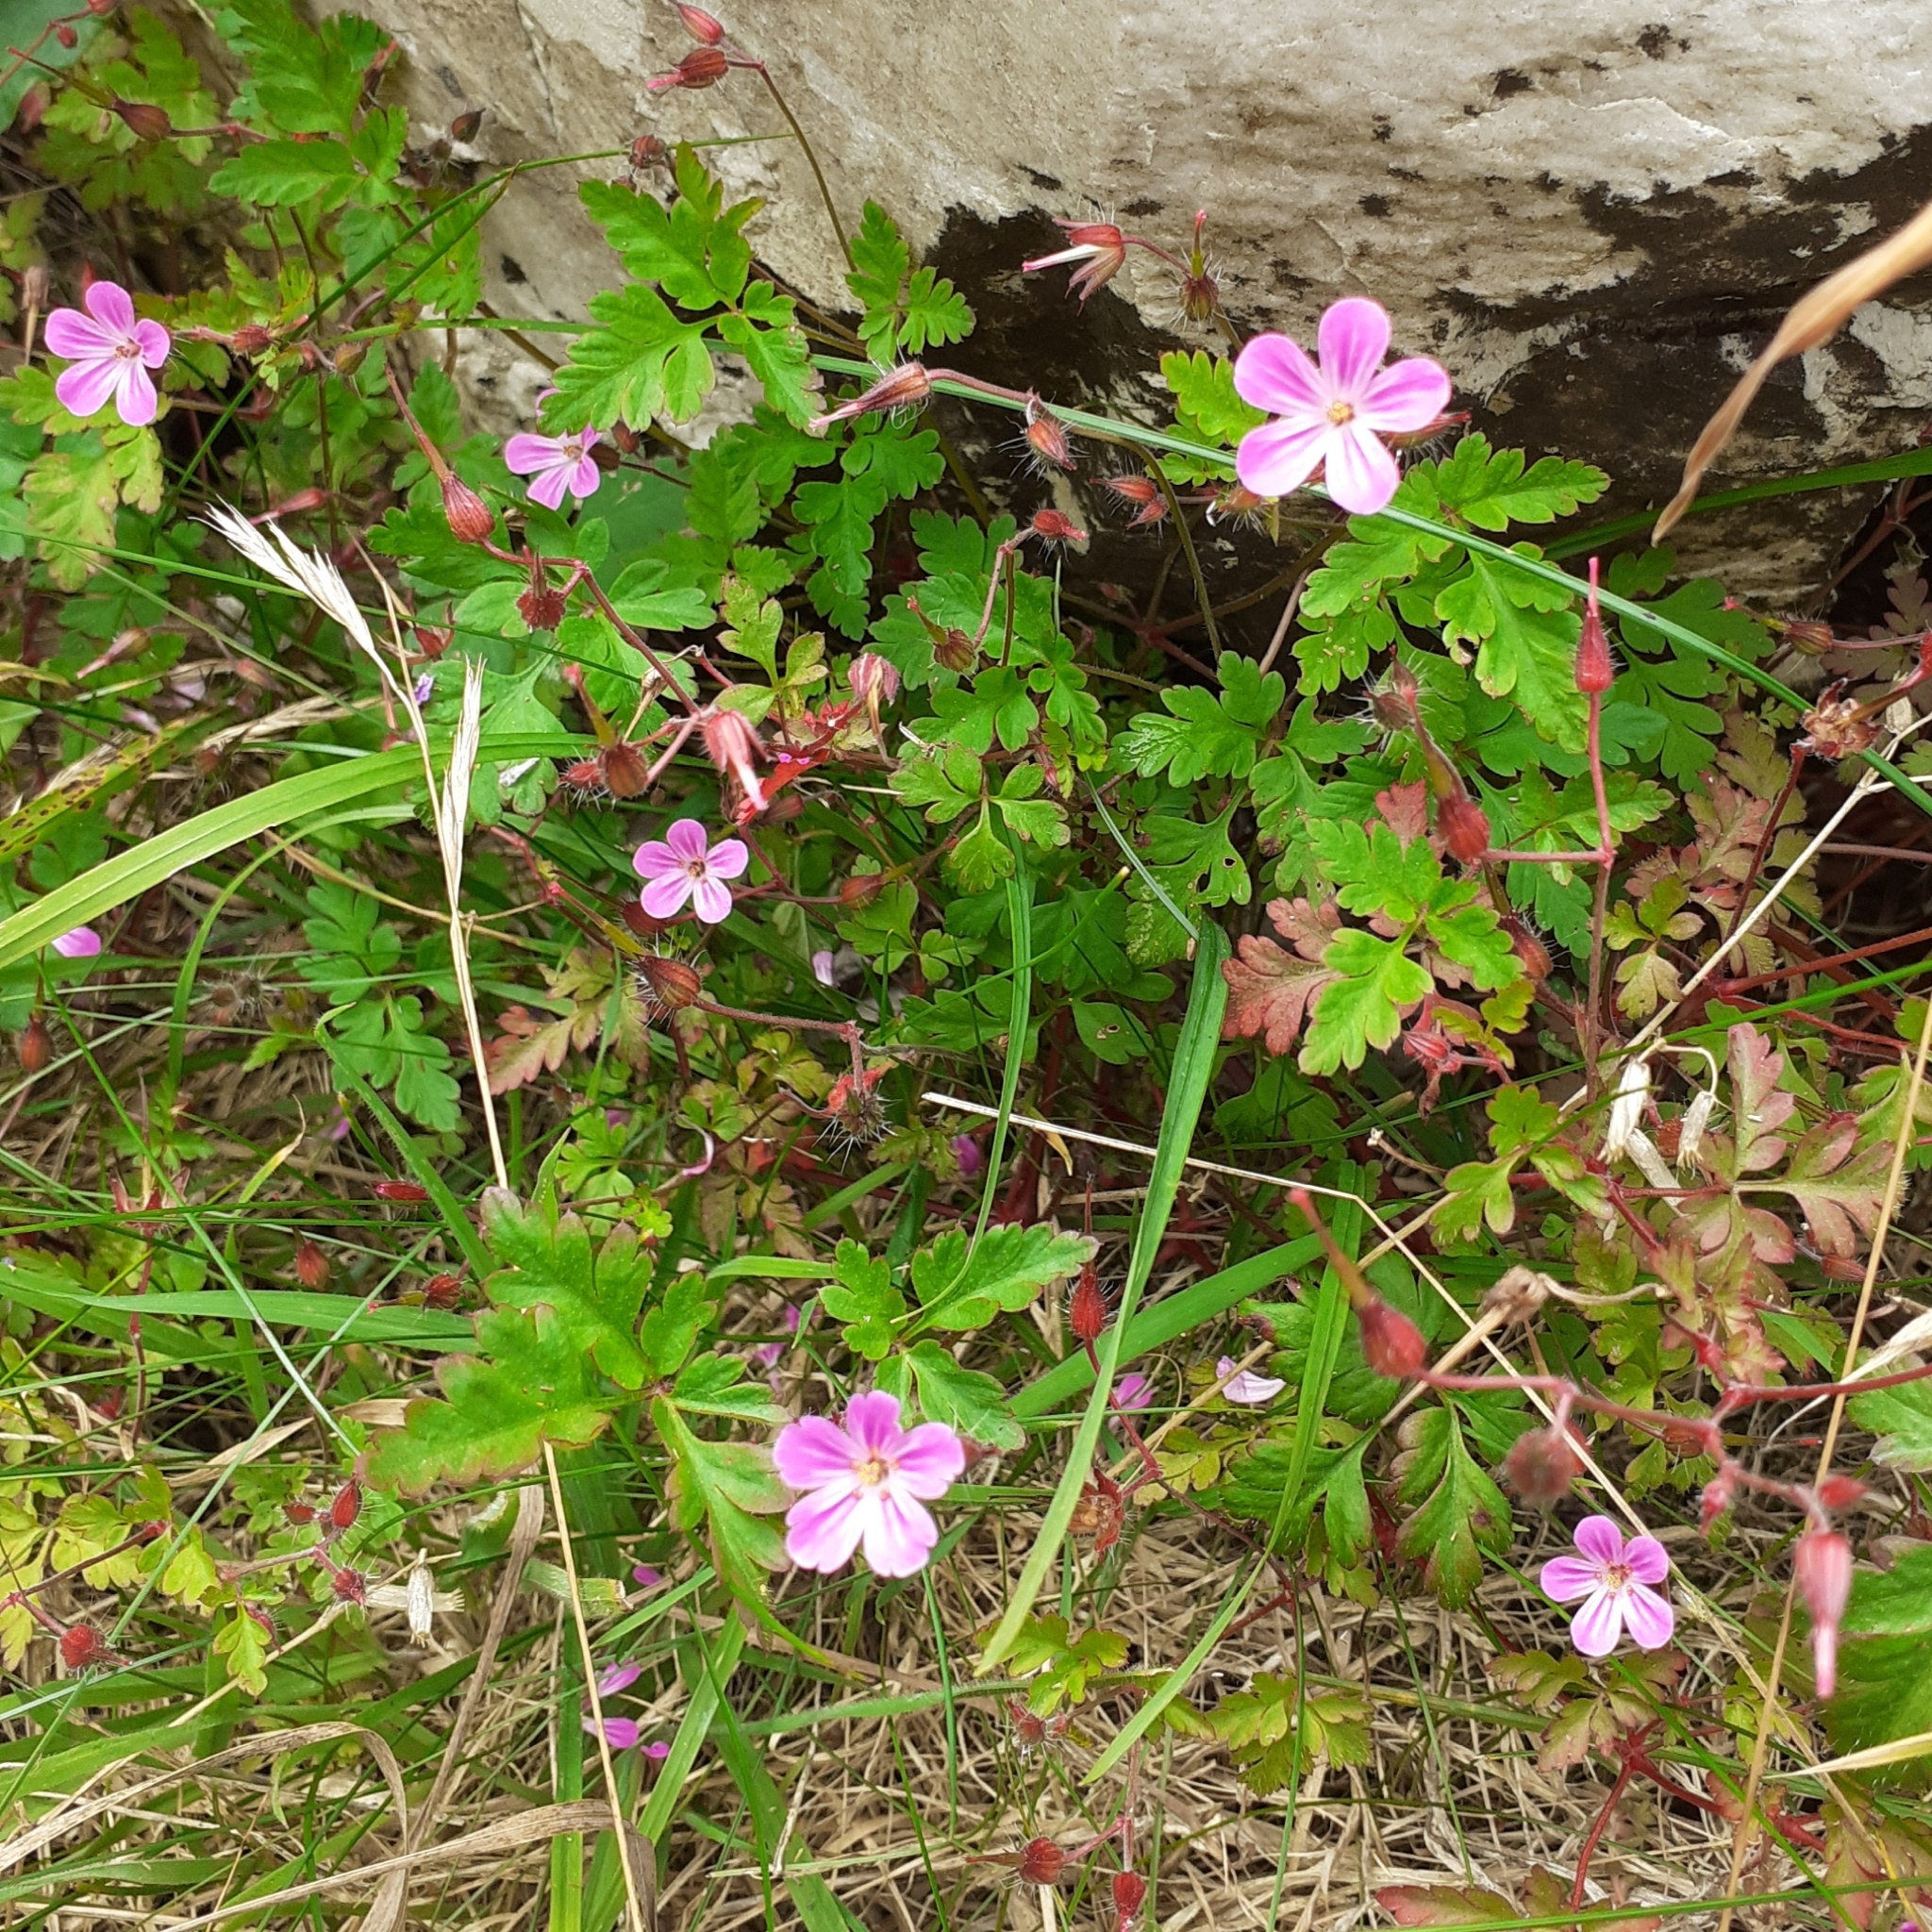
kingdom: Plantae
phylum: Tracheophyta
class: Magnoliopsida
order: Geraniales
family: Geraniaceae
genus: Geranium
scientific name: Geranium robertianum
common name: Herb-robert
